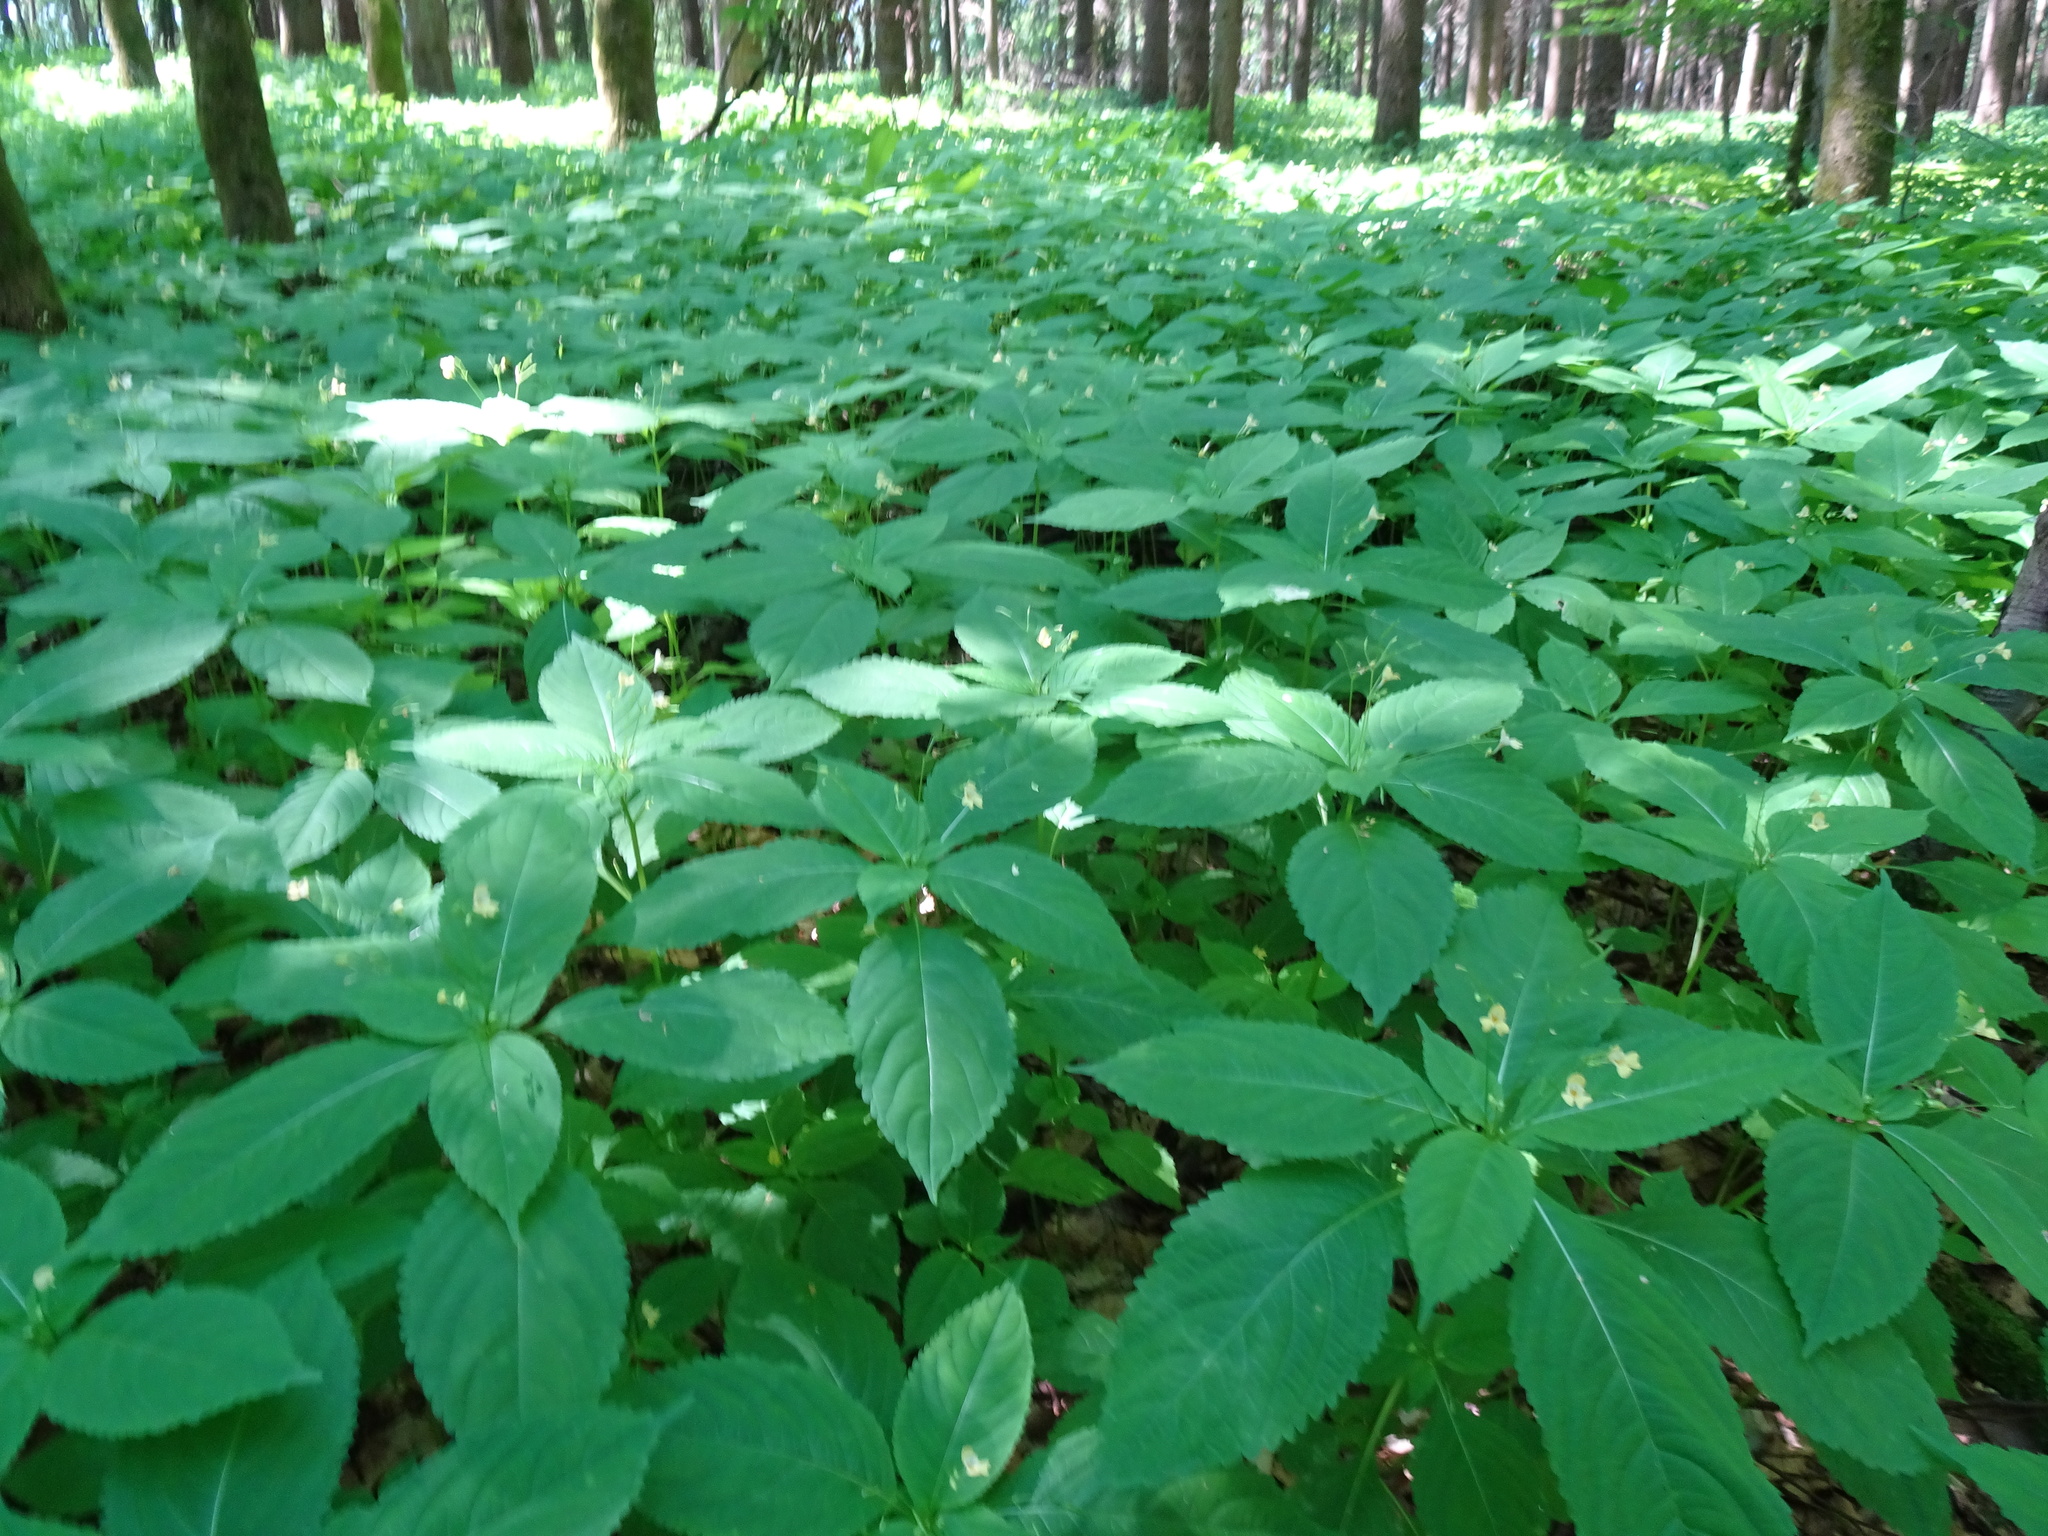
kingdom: Plantae
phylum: Tracheophyta
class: Magnoliopsida
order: Ericales
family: Balsaminaceae
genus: Impatiens
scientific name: Impatiens parviflora
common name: Small balsam
